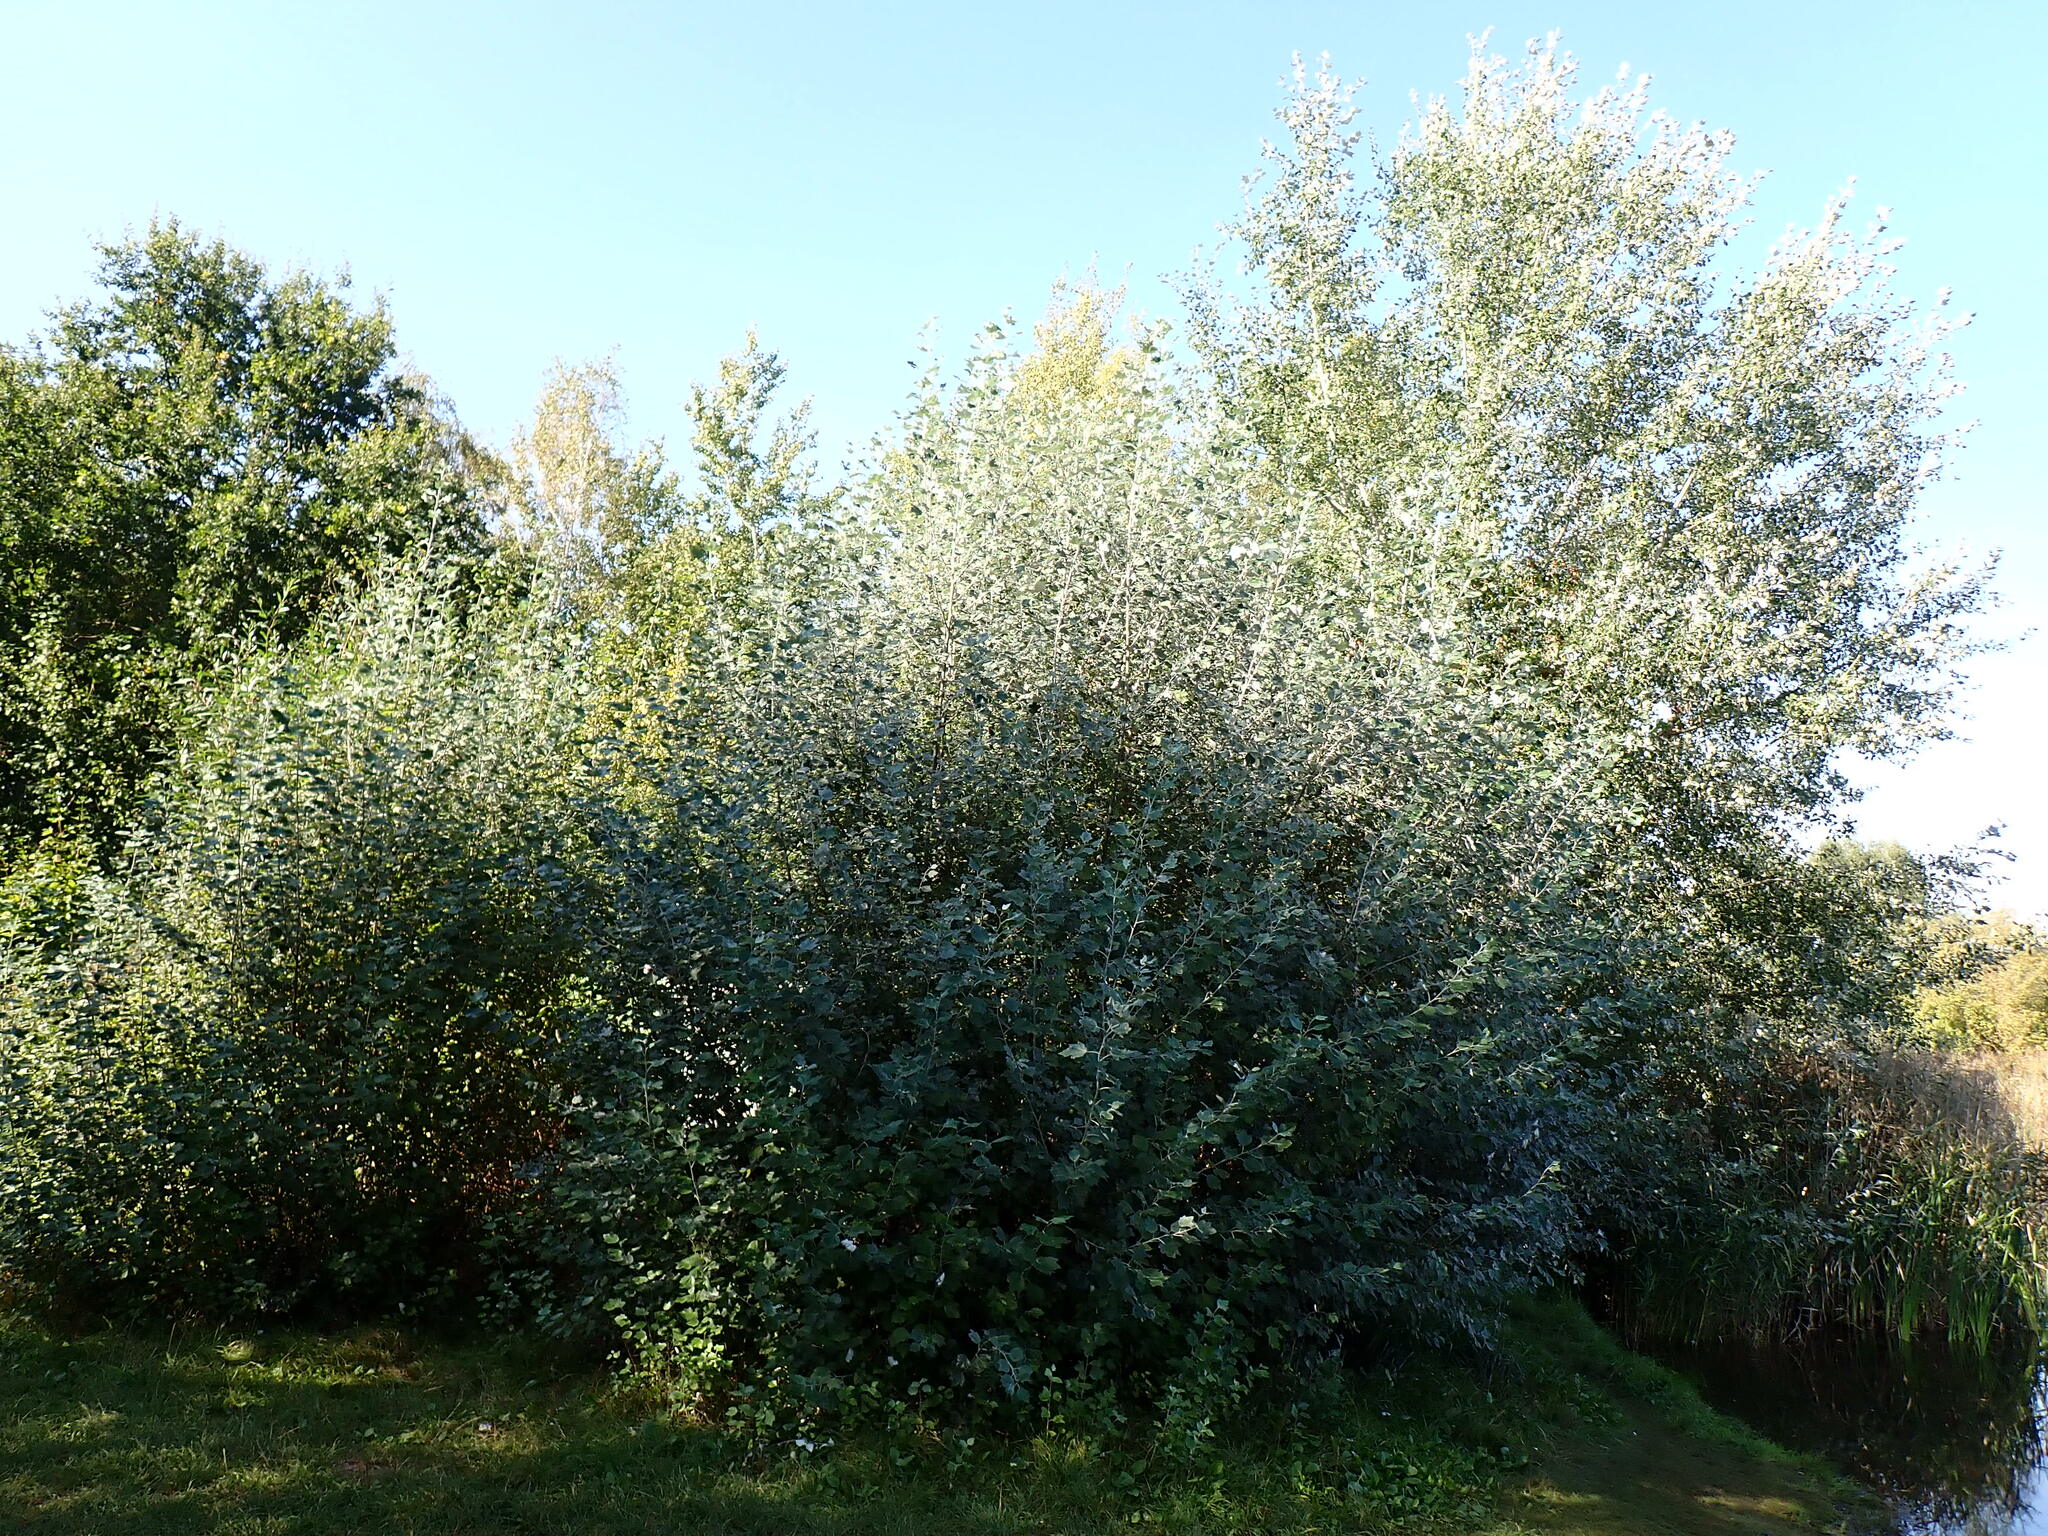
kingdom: Plantae
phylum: Tracheophyta
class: Magnoliopsida
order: Malpighiales
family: Salicaceae
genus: Populus
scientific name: Populus alba
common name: White poplar
